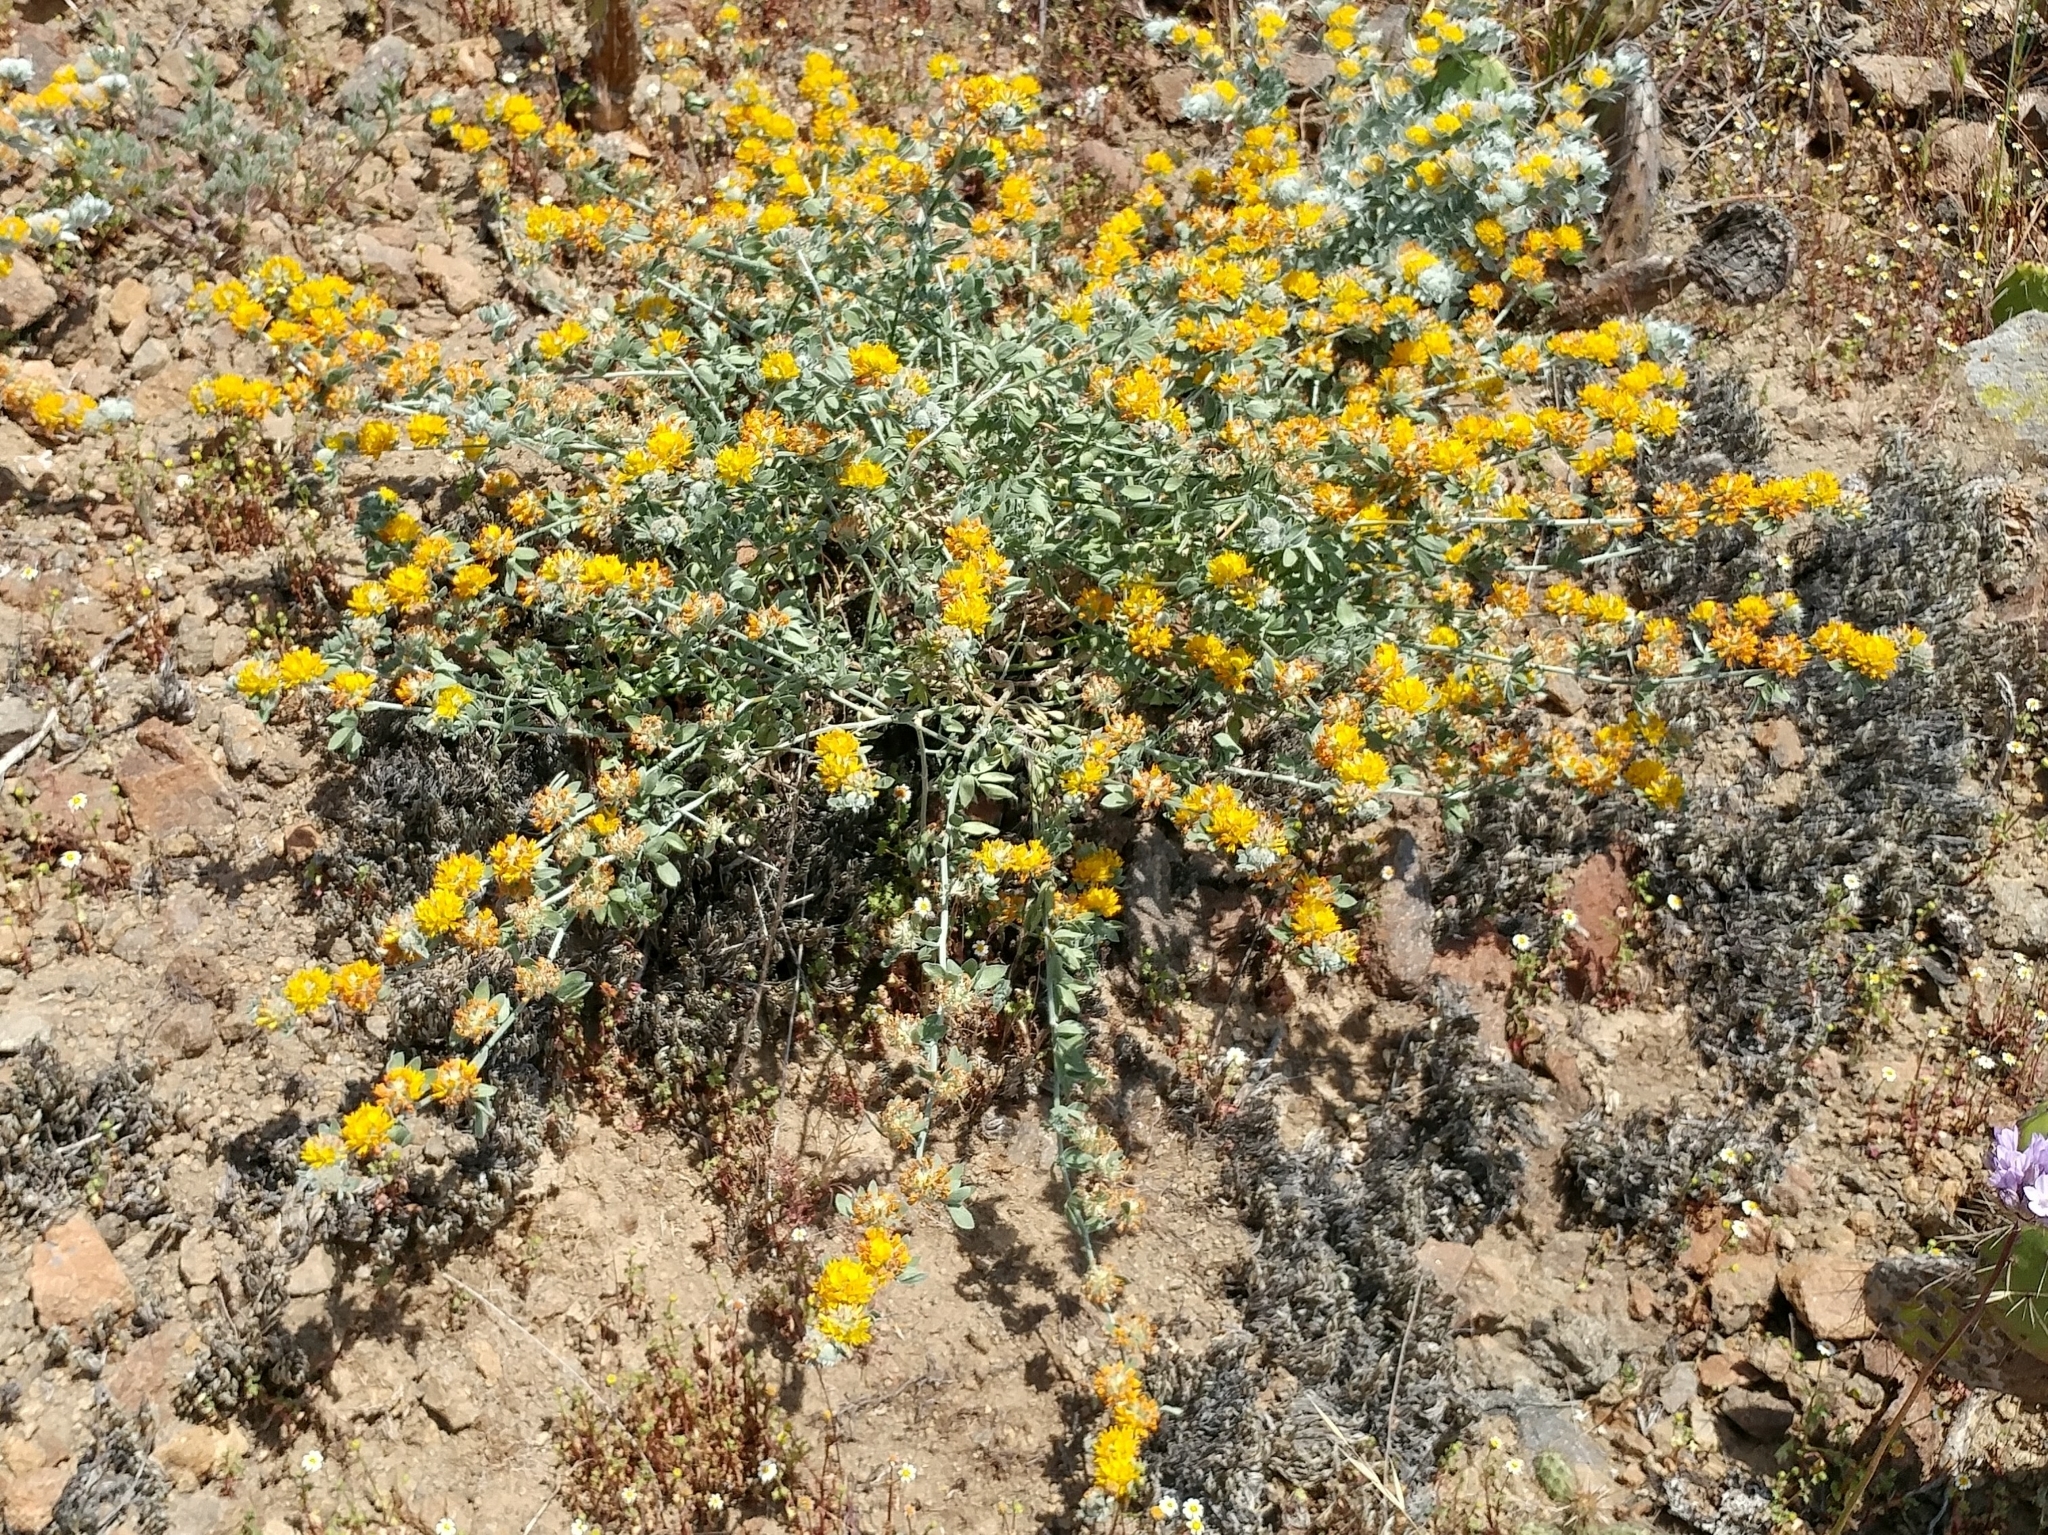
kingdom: Plantae
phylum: Tracheophyta
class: Magnoliopsida
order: Fabales
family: Fabaceae
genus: Acmispon
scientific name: Acmispon argophyllus
